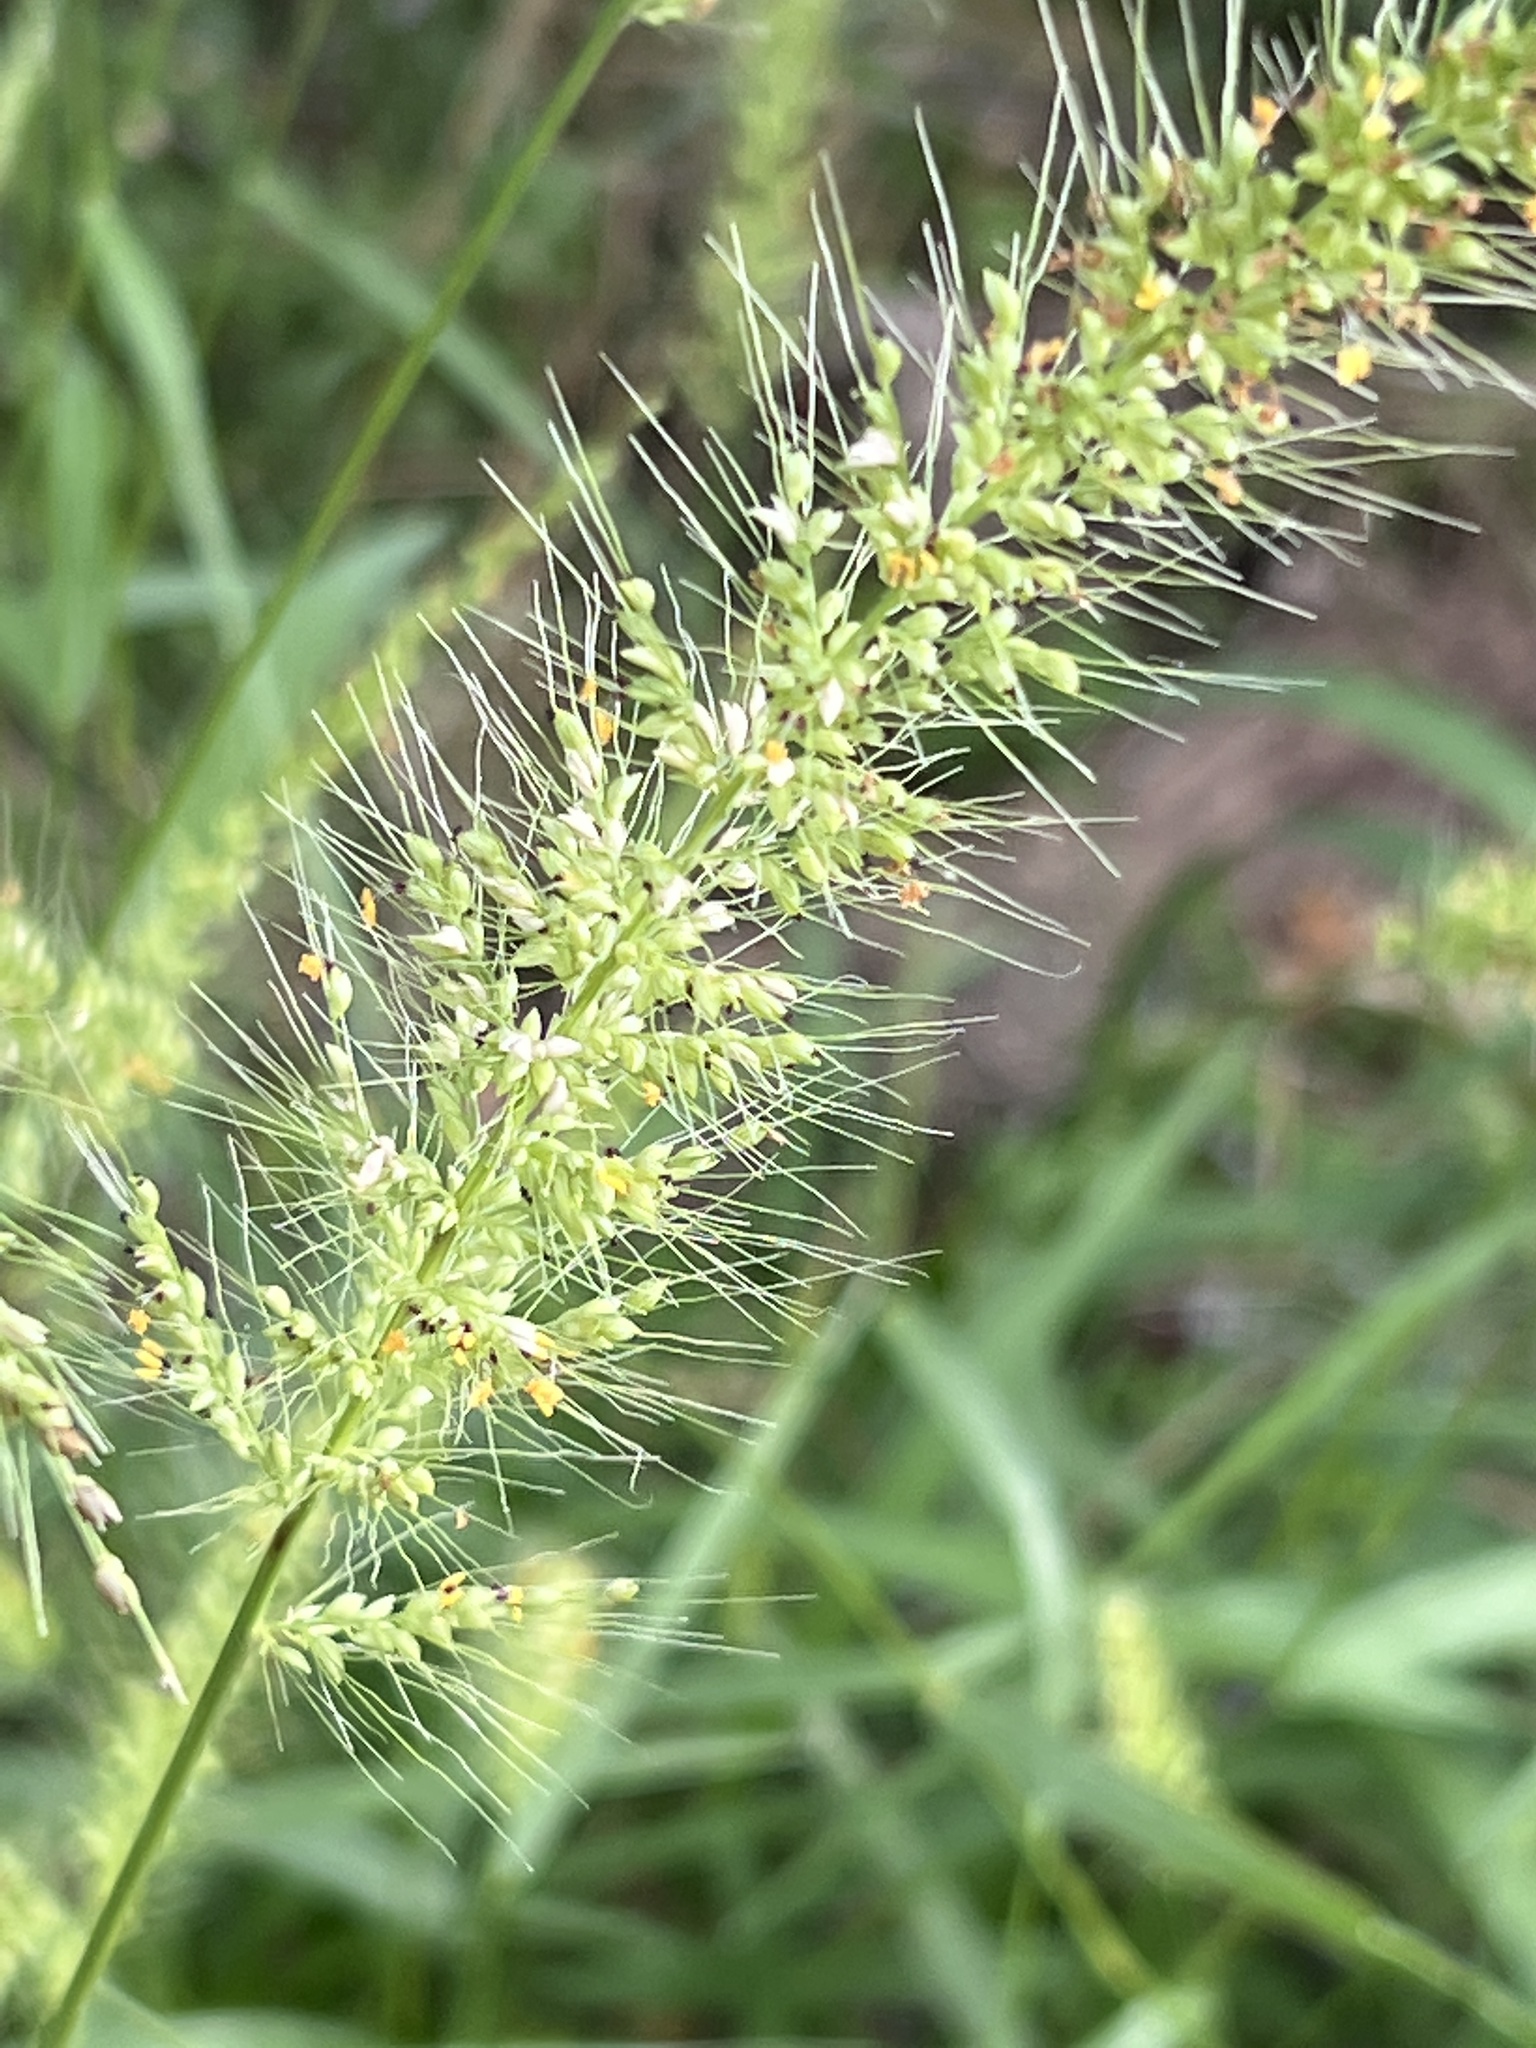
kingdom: Plantae
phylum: Tracheophyta
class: Liliopsida
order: Poales
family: Poaceae
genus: Setaria
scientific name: Setaria scheelei
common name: Southwestern bristle grass
